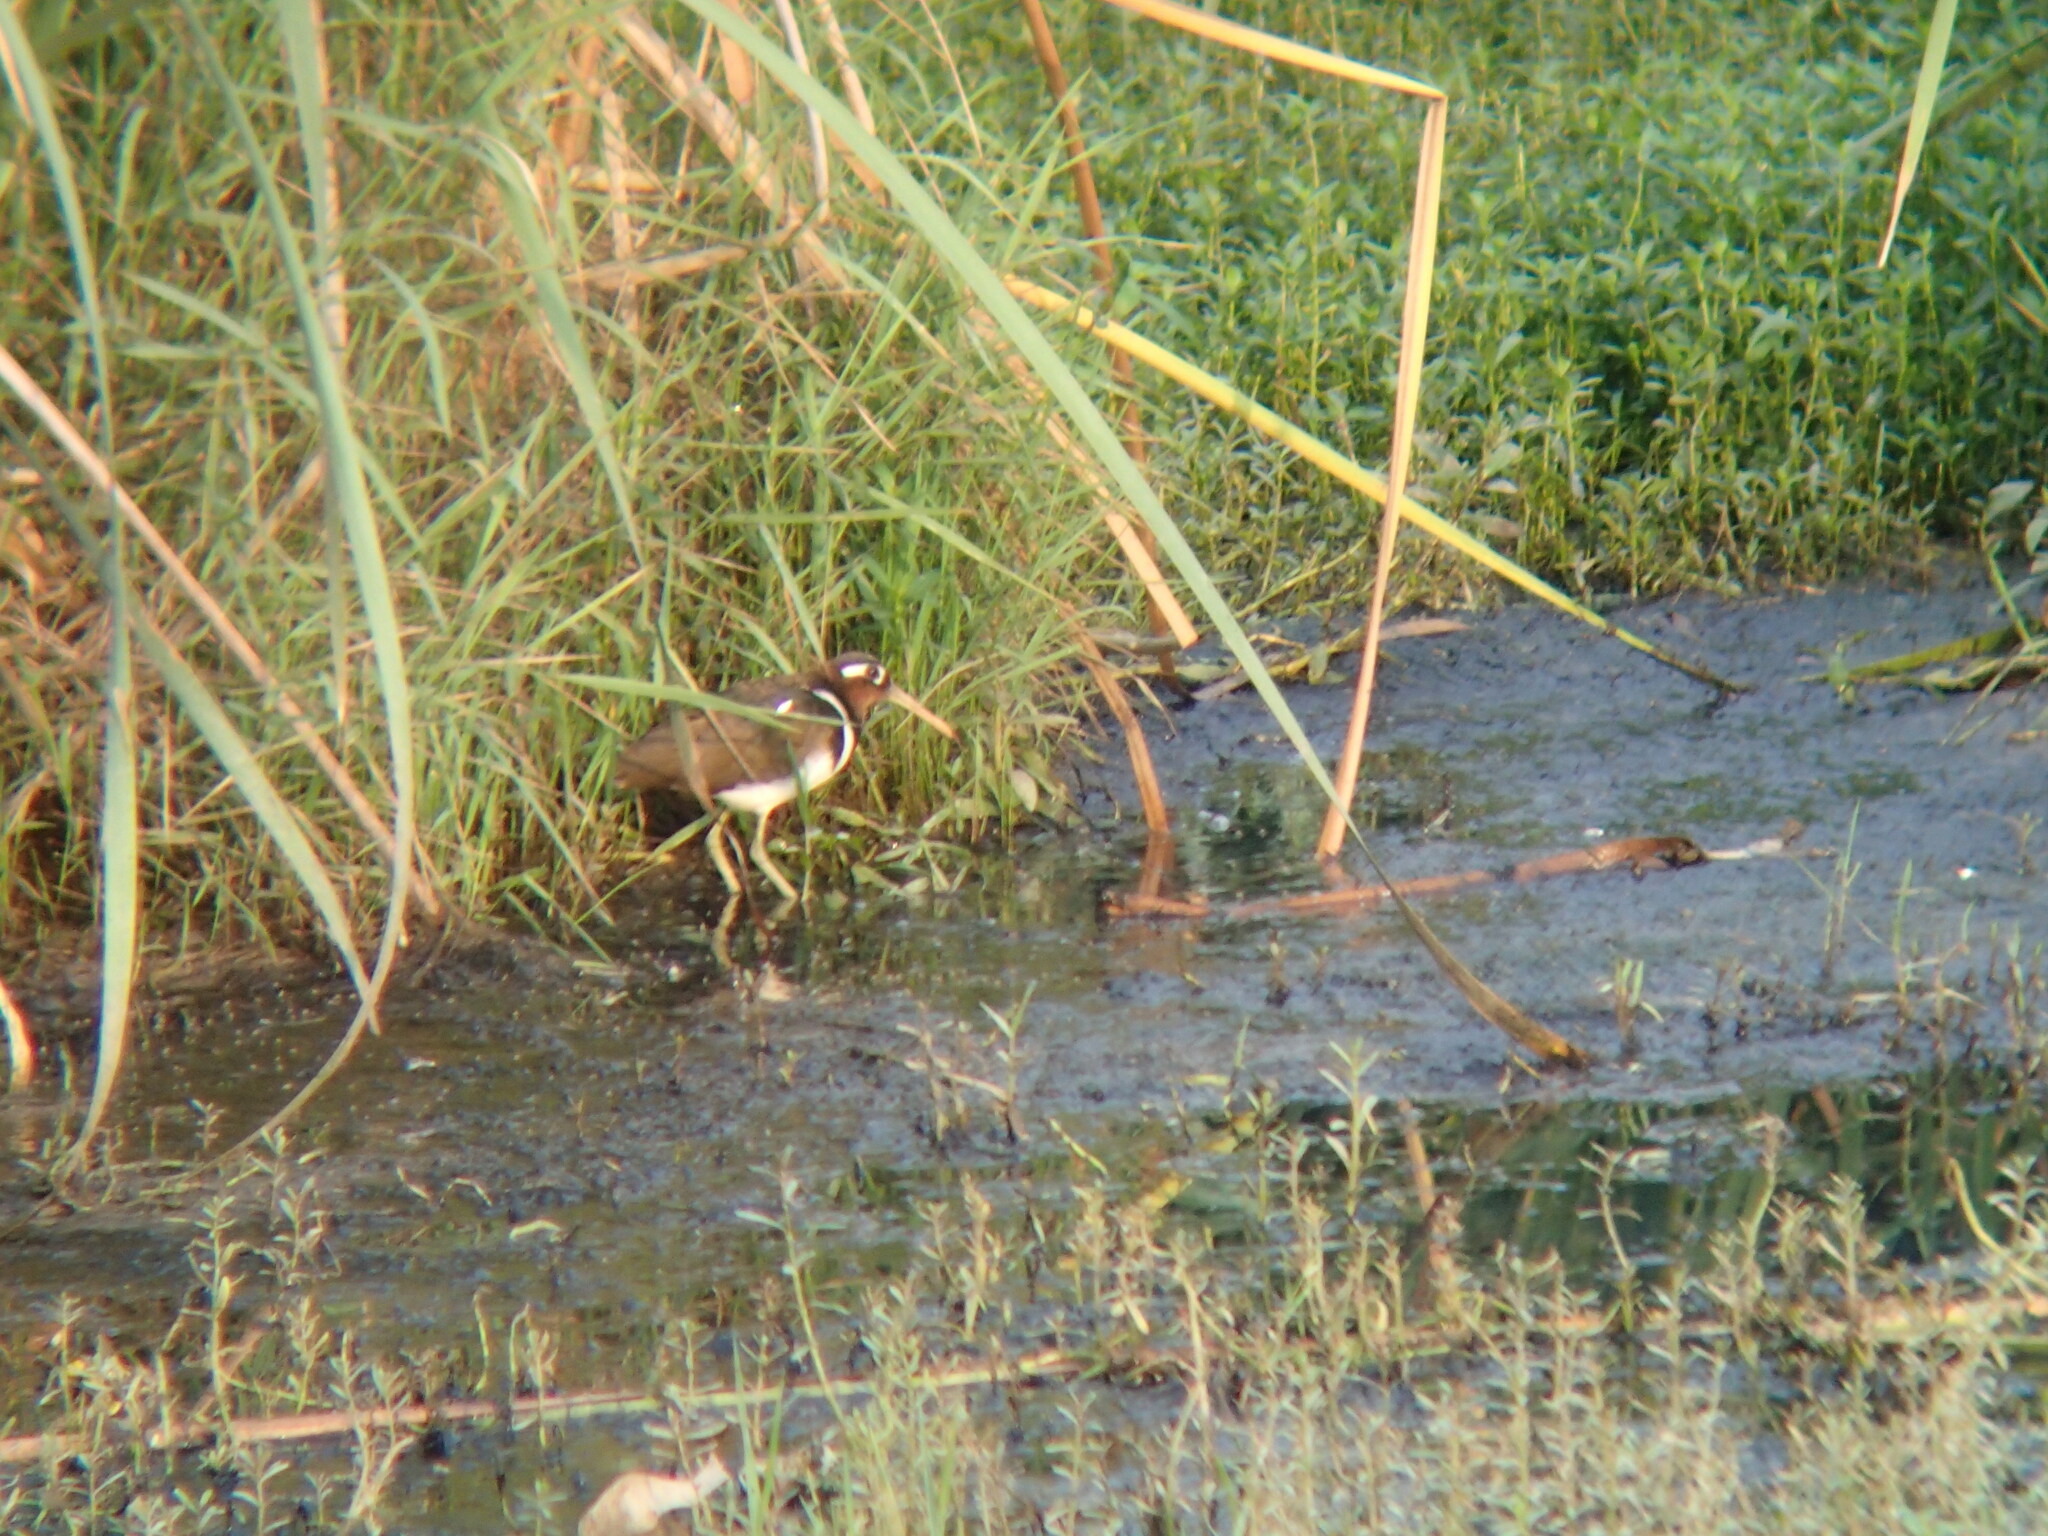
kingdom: Animalia
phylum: Chordata
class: Aves
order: Charadriiformes
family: Rostratulidae
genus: Rostratula
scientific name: Rostratula benghalensis
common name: Greater painted-snipe
